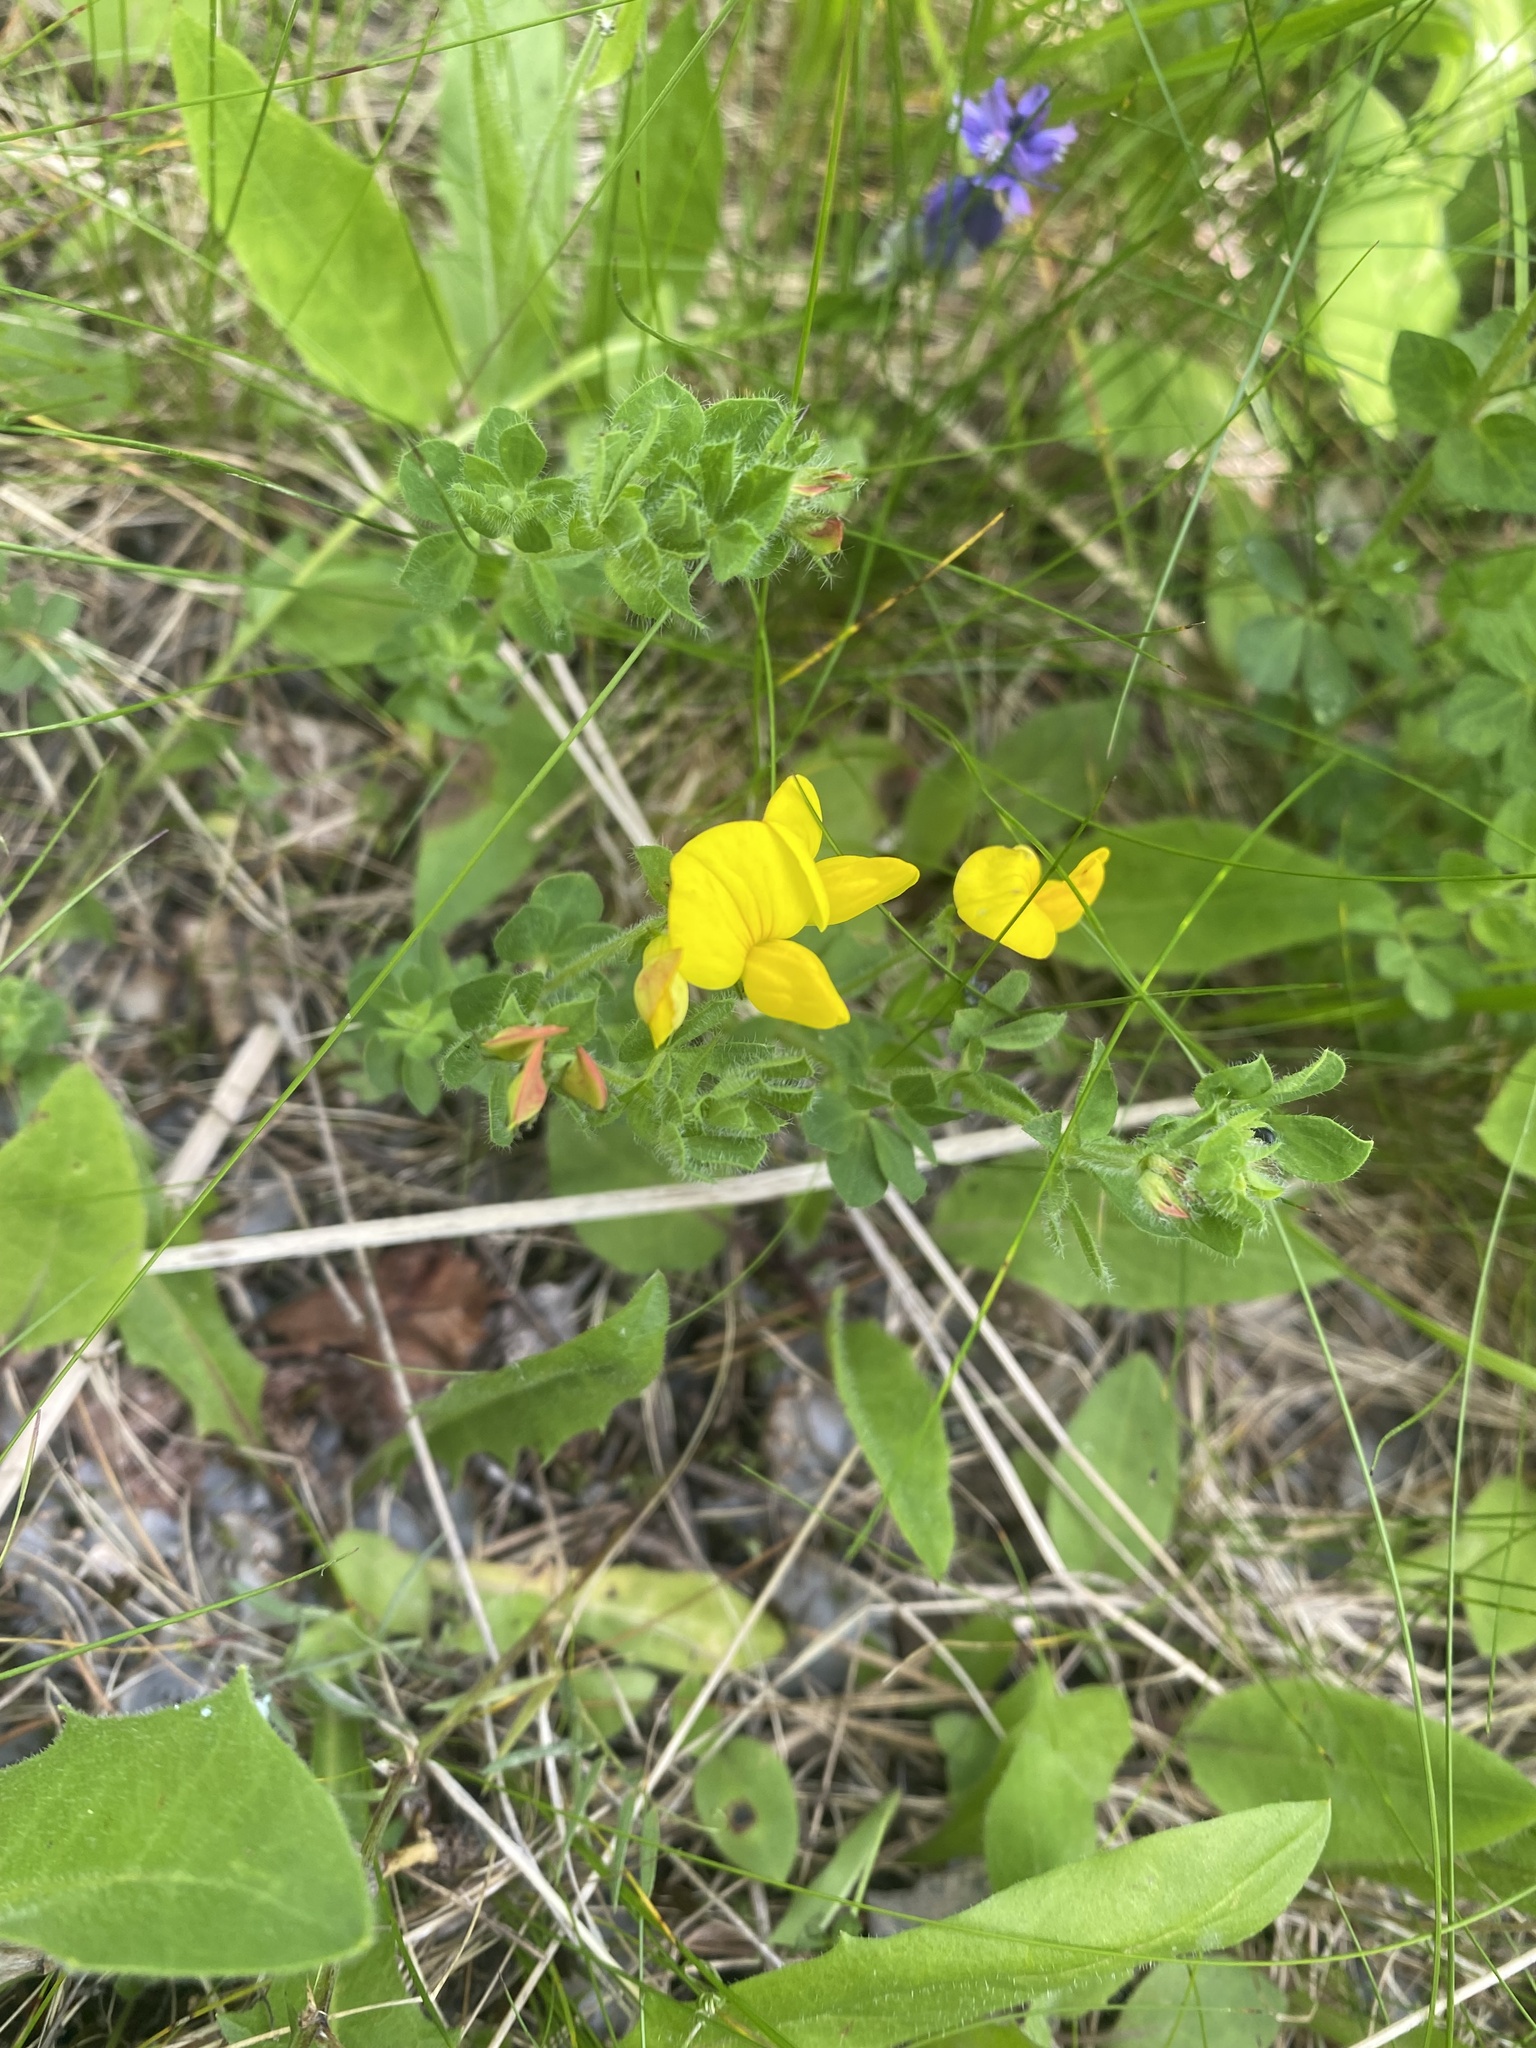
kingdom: Plantae
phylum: Tracheophyta
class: Magnoliopsida
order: Fabales
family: Fabaceae
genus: Lotus
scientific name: Lotus corniculatus
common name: Common bird's-foot-trefoil
